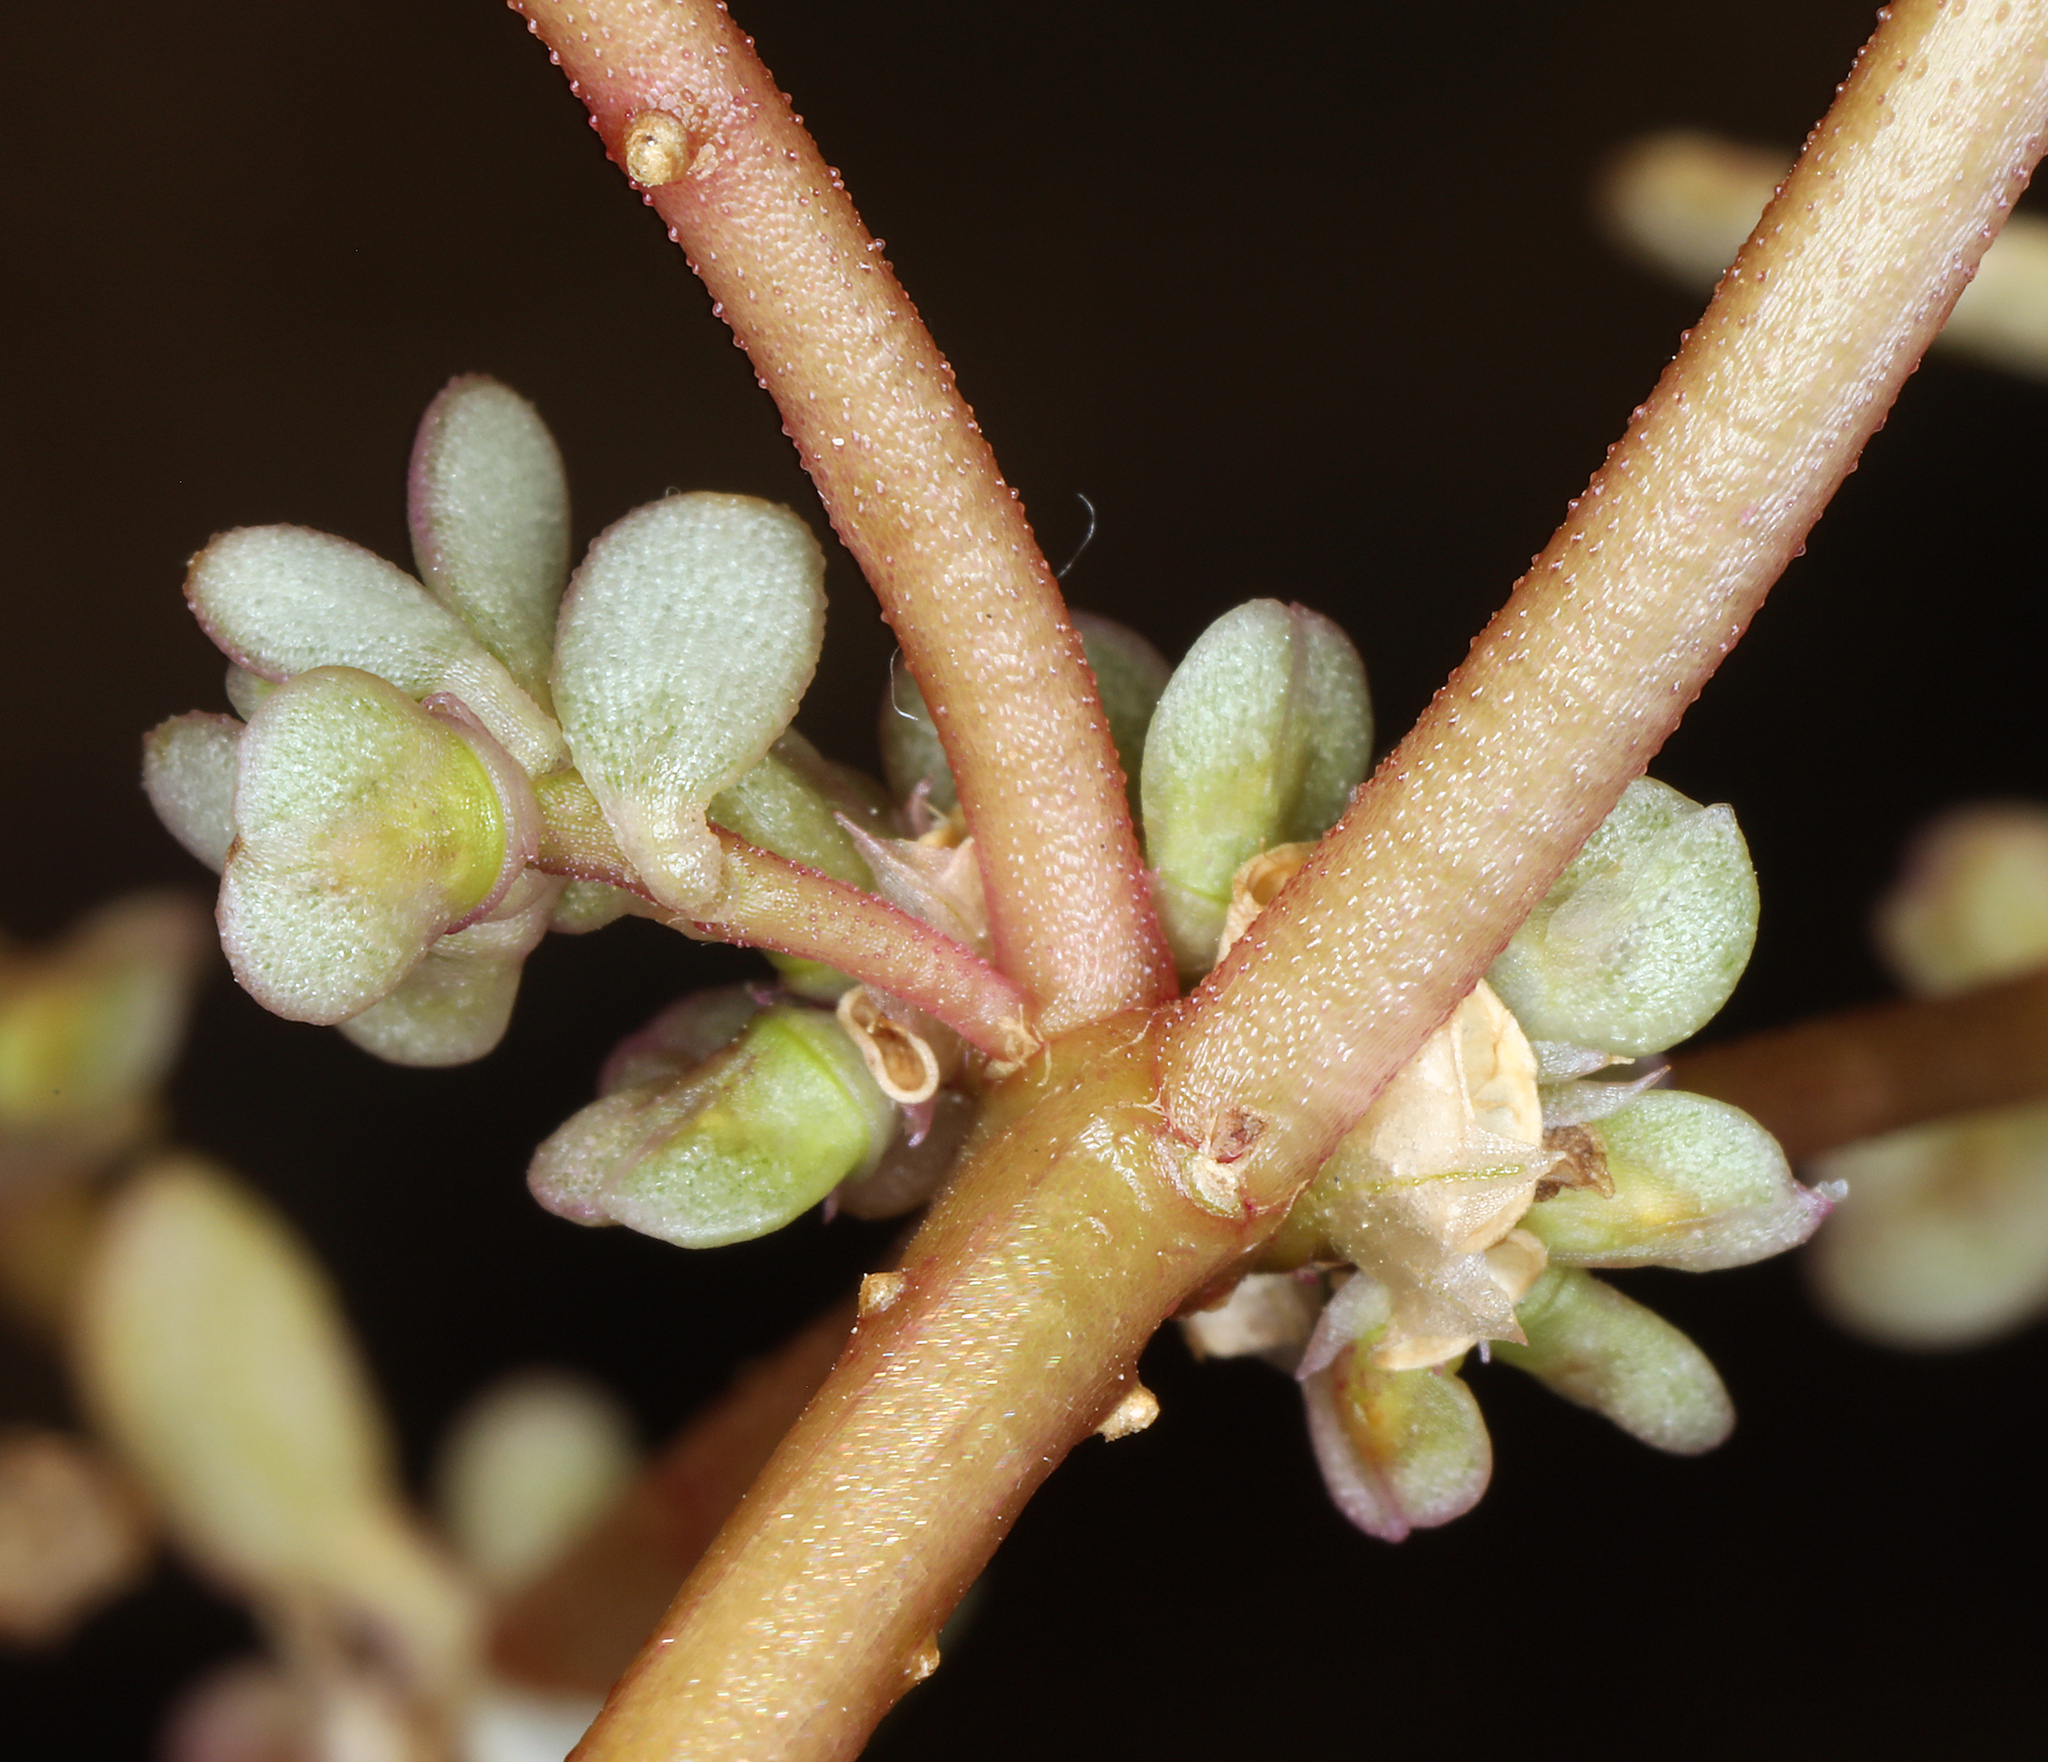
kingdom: Plantae
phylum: Tracheophyta
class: Magnoliopsida
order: Caryophyllales
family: Portulacaceae
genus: Portulaca
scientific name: Portulaca impolita
